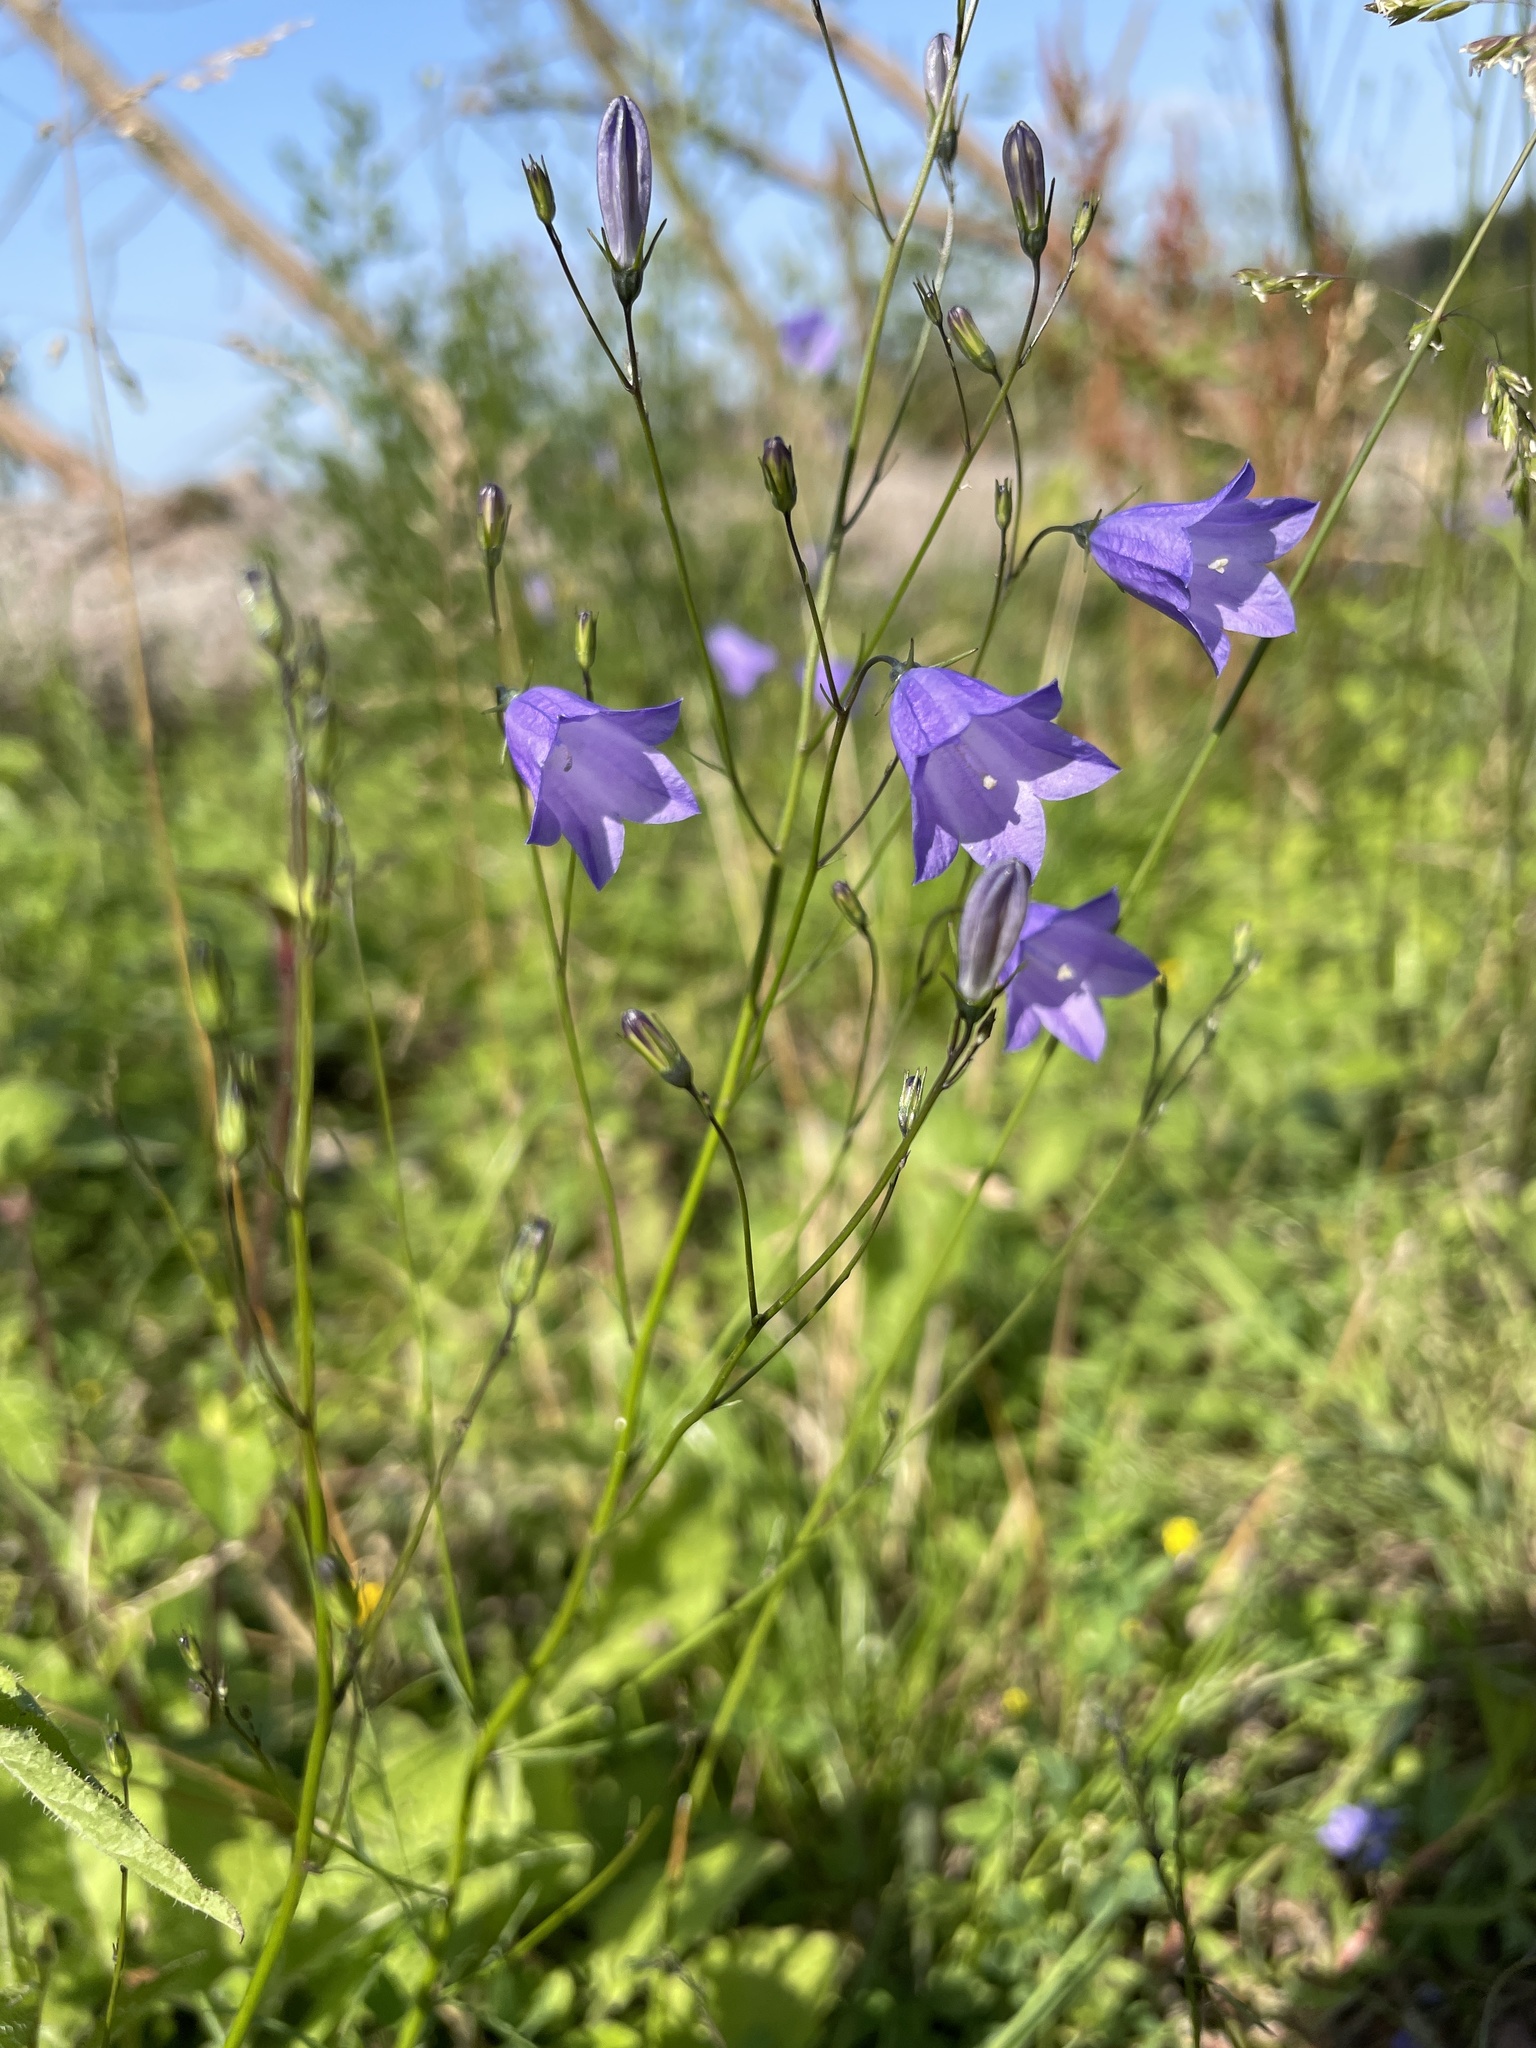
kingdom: Plantae
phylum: Tracheophyta
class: Magnoliopsida
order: Asterales
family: Campanulaceae
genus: Campanula
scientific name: Campanula rotundifolia
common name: Harebell
